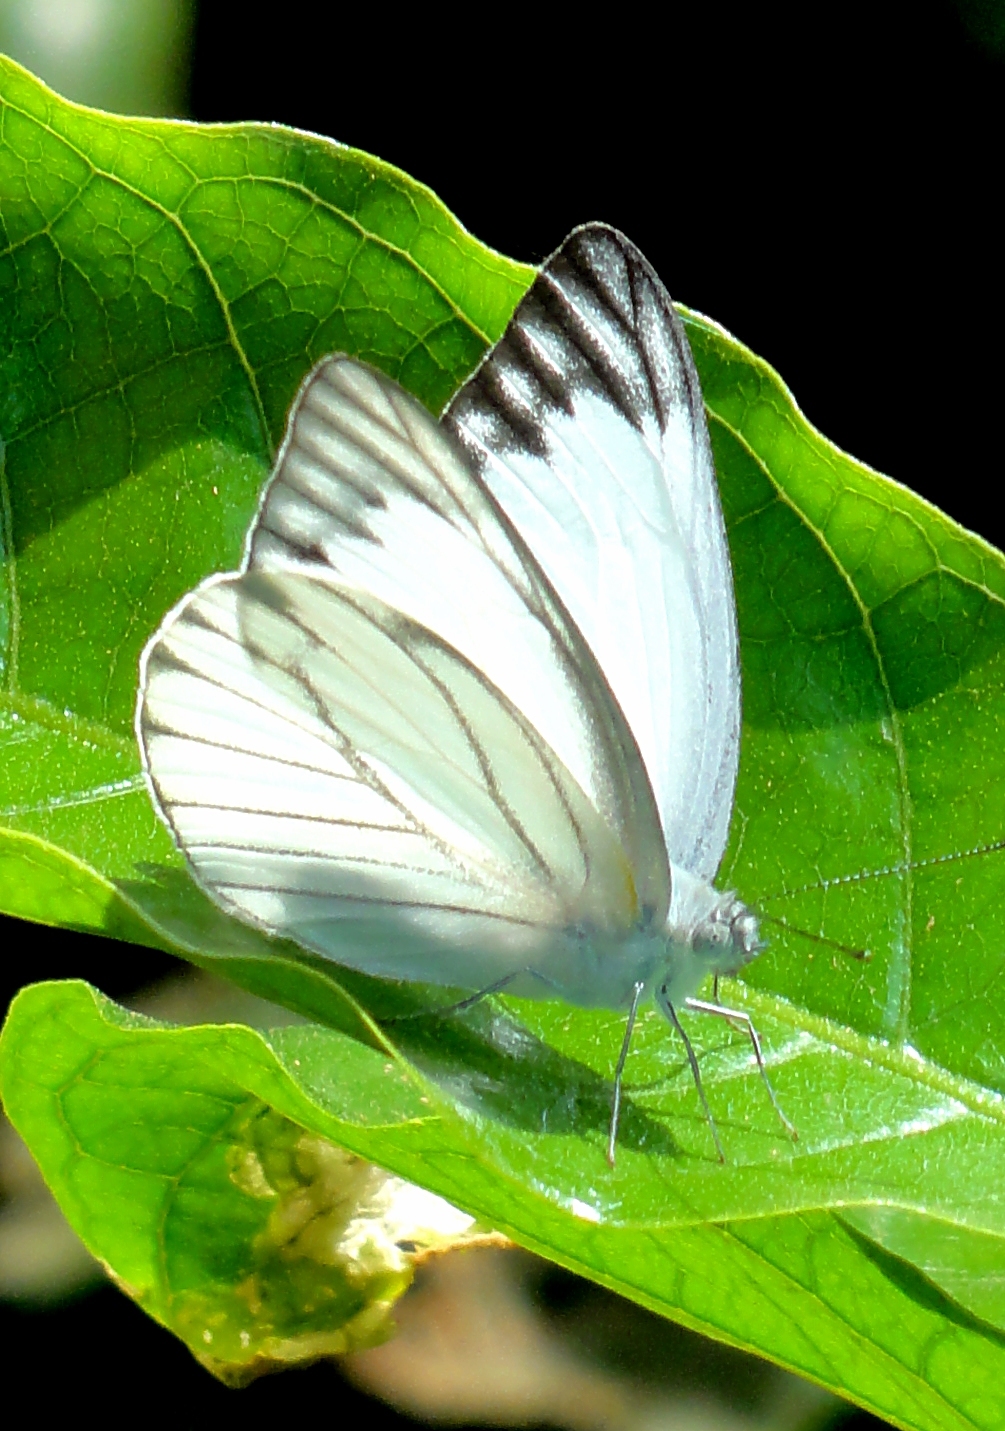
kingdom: Animalia
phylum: Arthropoda
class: Insecta
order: Lepidoptera
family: Pieridae
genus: Appias
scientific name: Appias libythea
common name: Striped albatross
